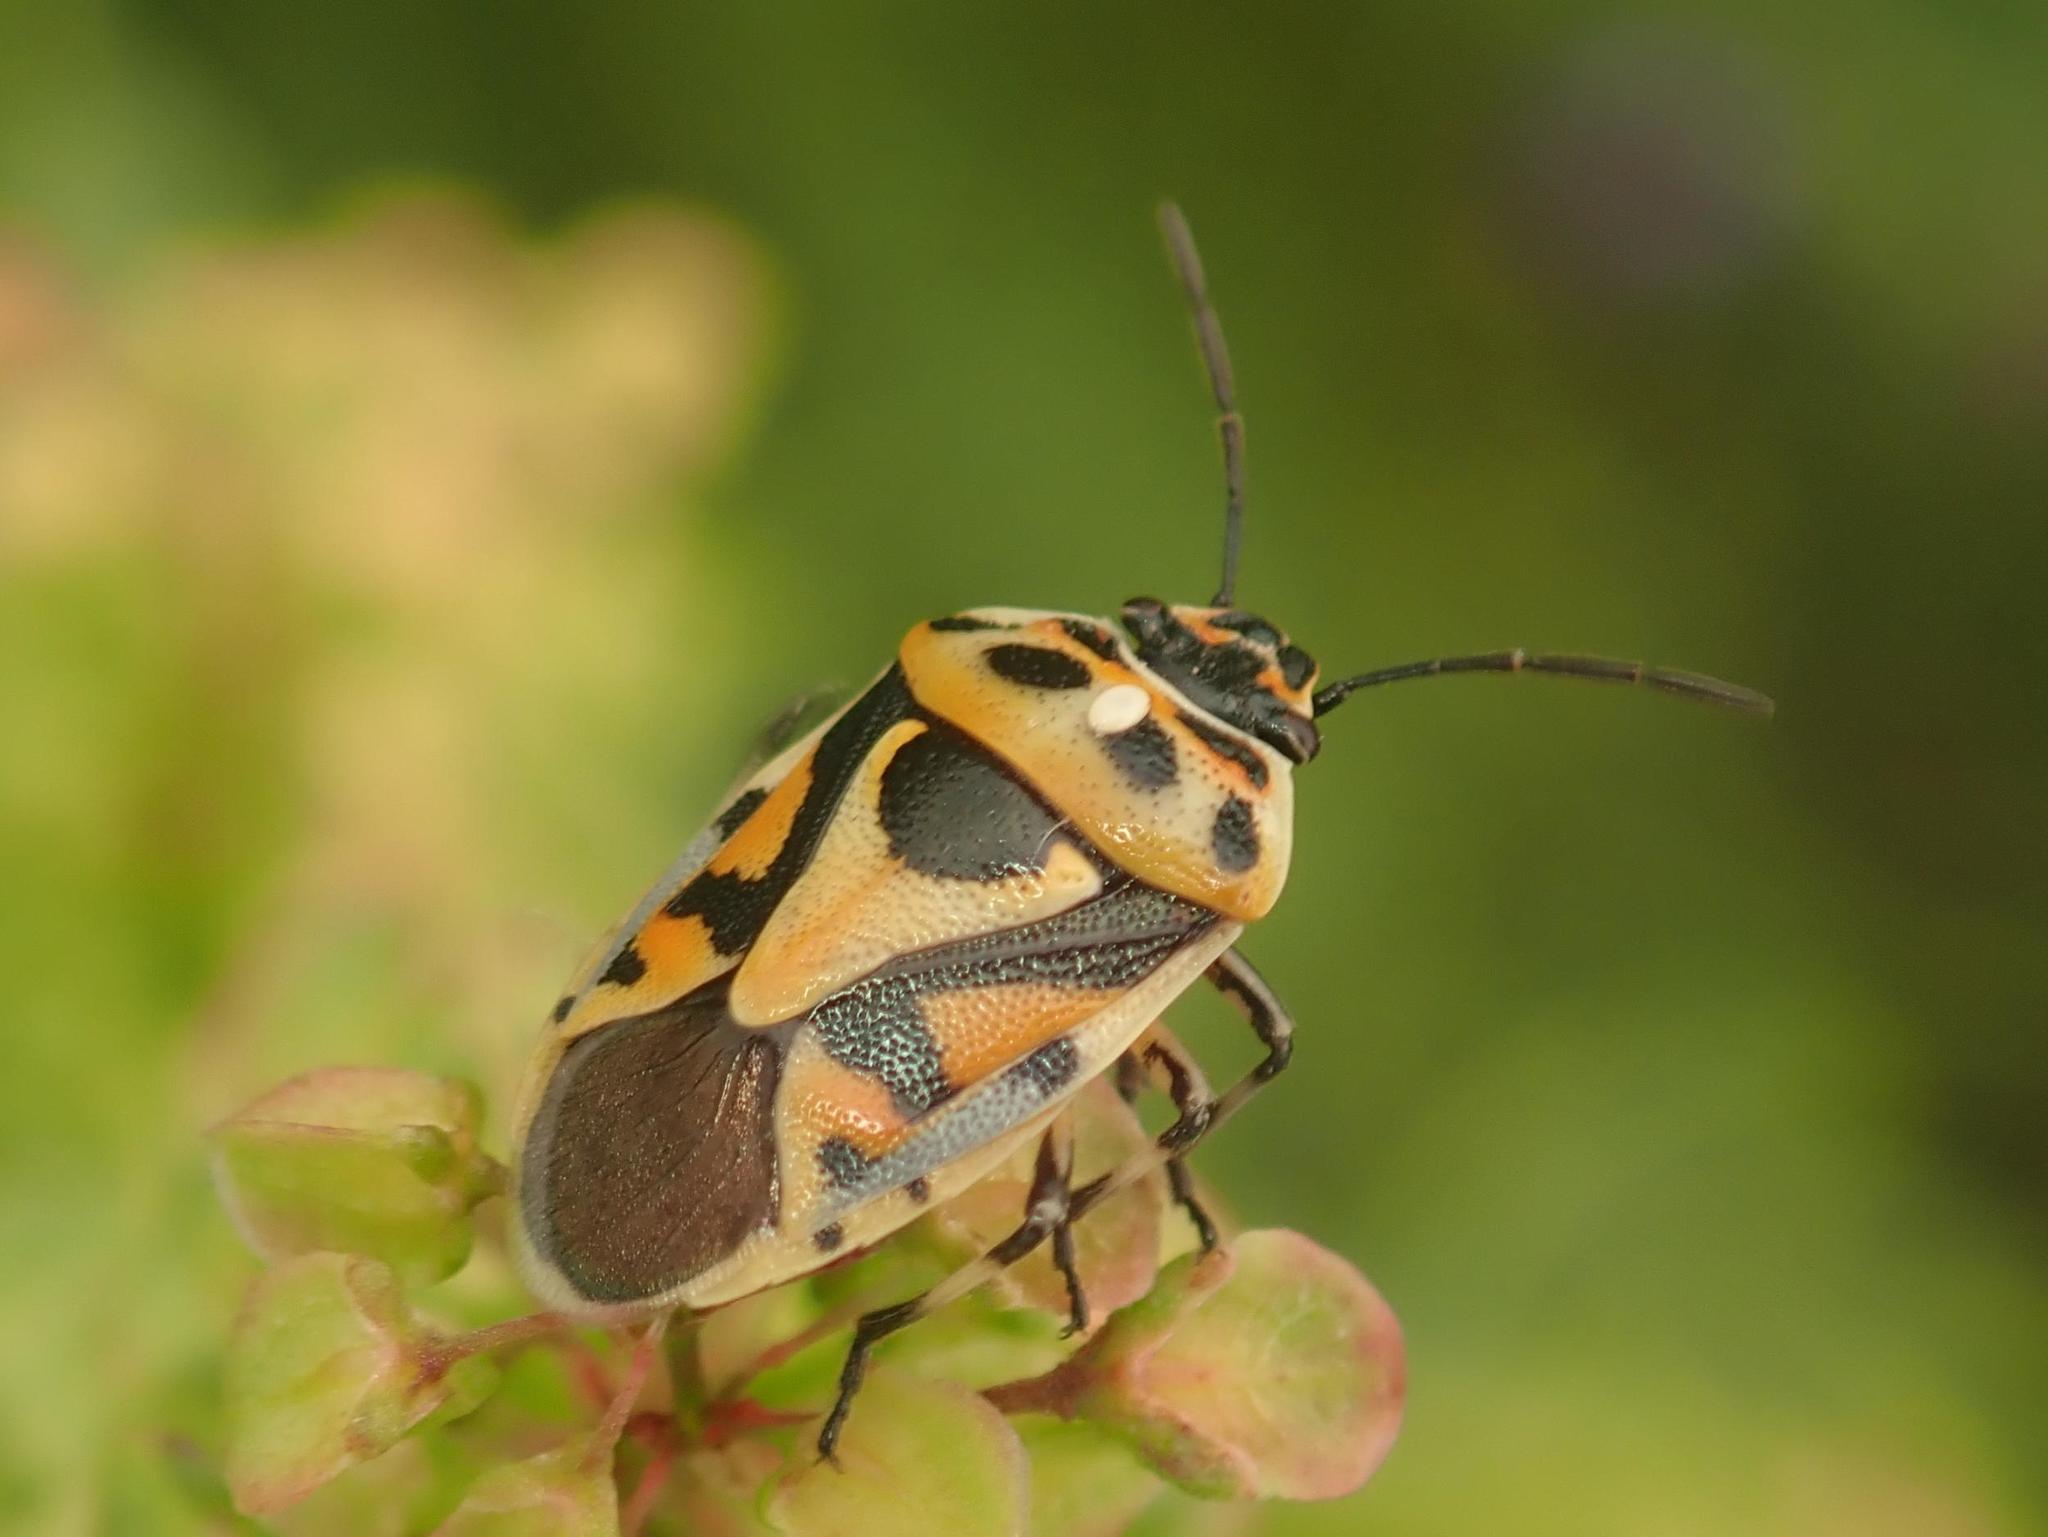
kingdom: Animalia
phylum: Arthropoda
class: Insecta
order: Hemiptera
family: Pentatomidae
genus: Eurydema
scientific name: Eurydema ornata
